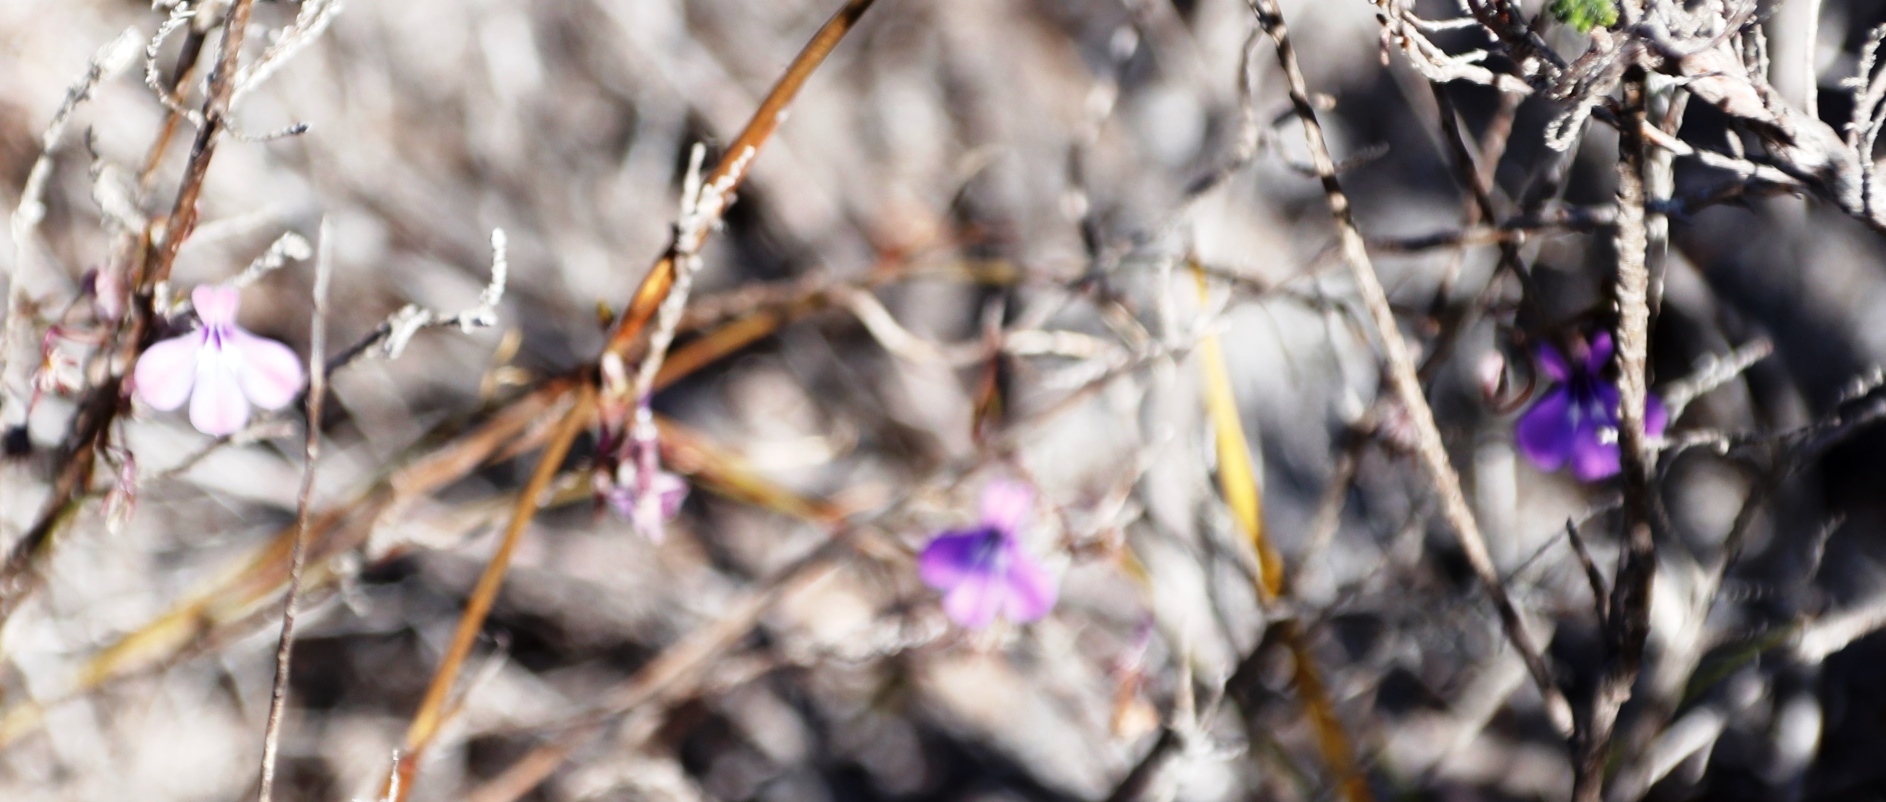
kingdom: Plantae
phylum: Tracheophyta
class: Magnoliopsida
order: Asterales
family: Campanulaceae
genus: Lobelia
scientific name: Lobelia setacea
